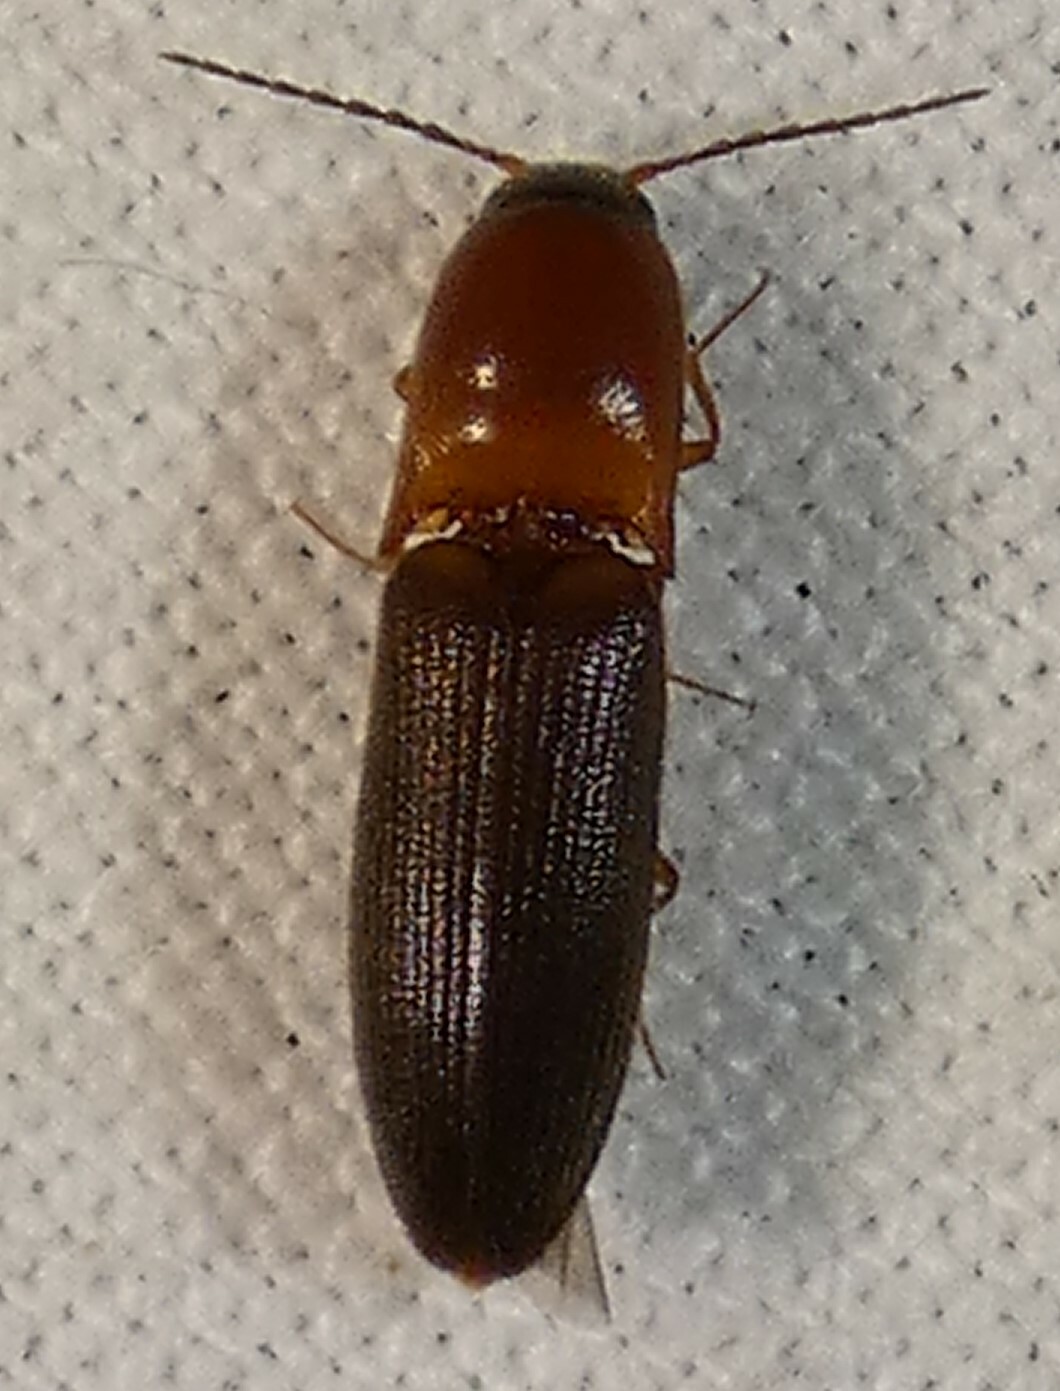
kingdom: Animalia
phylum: Arthropoda
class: Insecta
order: Coleoptera
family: Elateridae
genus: Megapenthes
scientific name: Megapenthes
